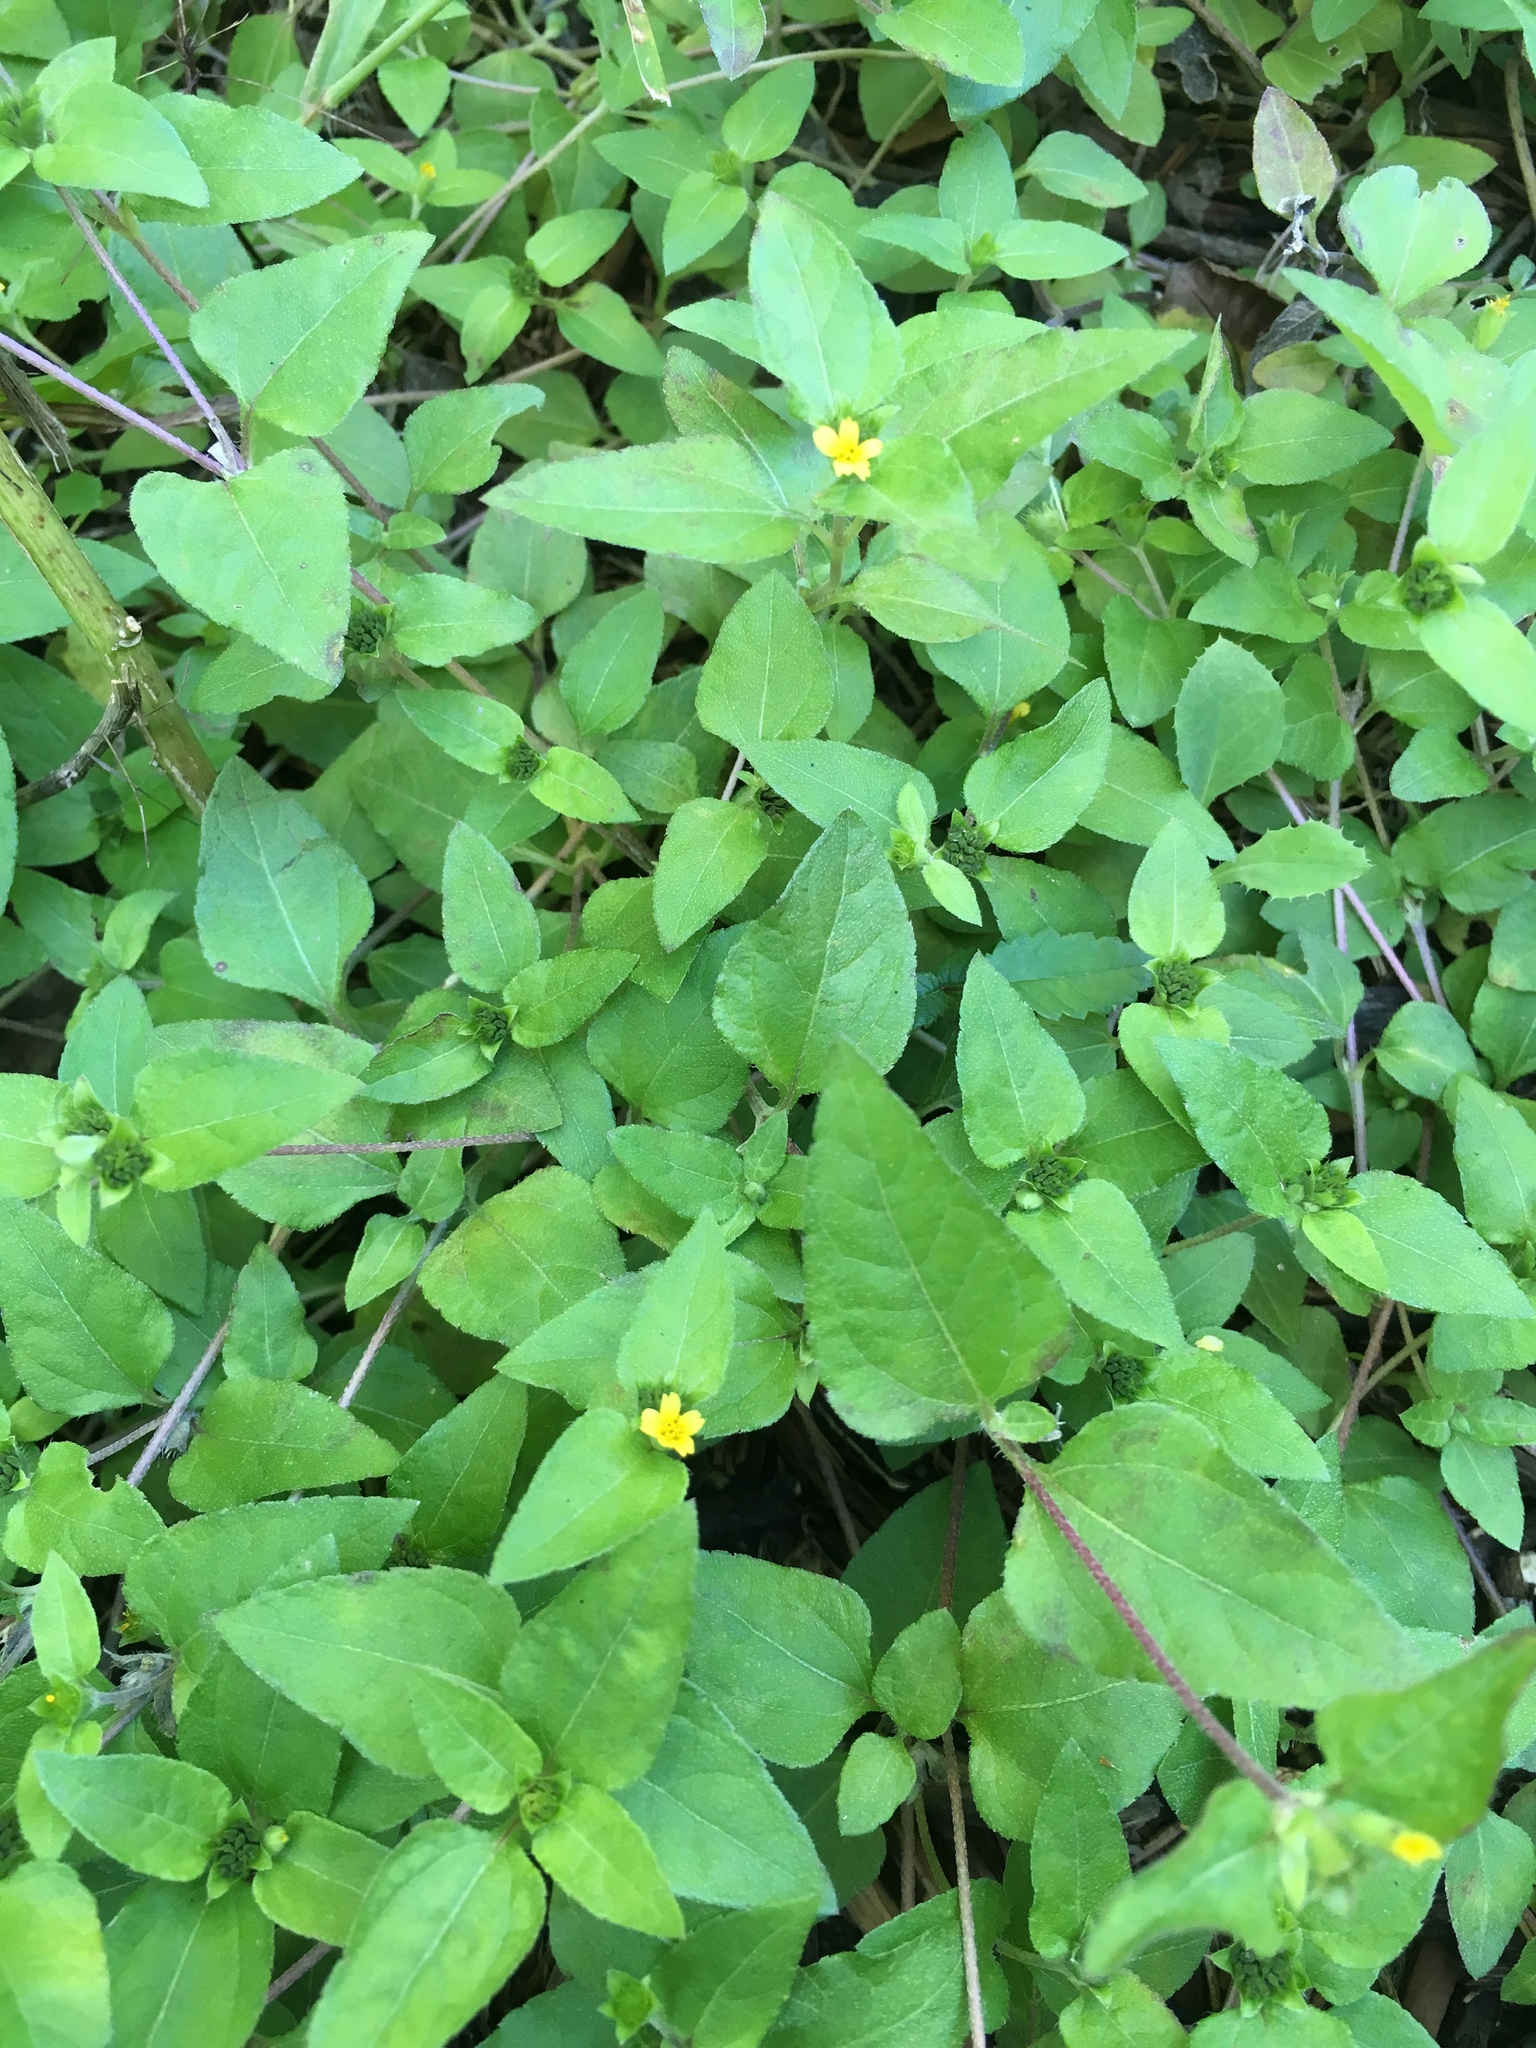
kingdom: Plantae
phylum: Tracheophyta
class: Magnoliopsida
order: Asterales
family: Asteraceae
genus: Calyptocarpus
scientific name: Calyptocarpus vialis
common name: Straggler daisy
